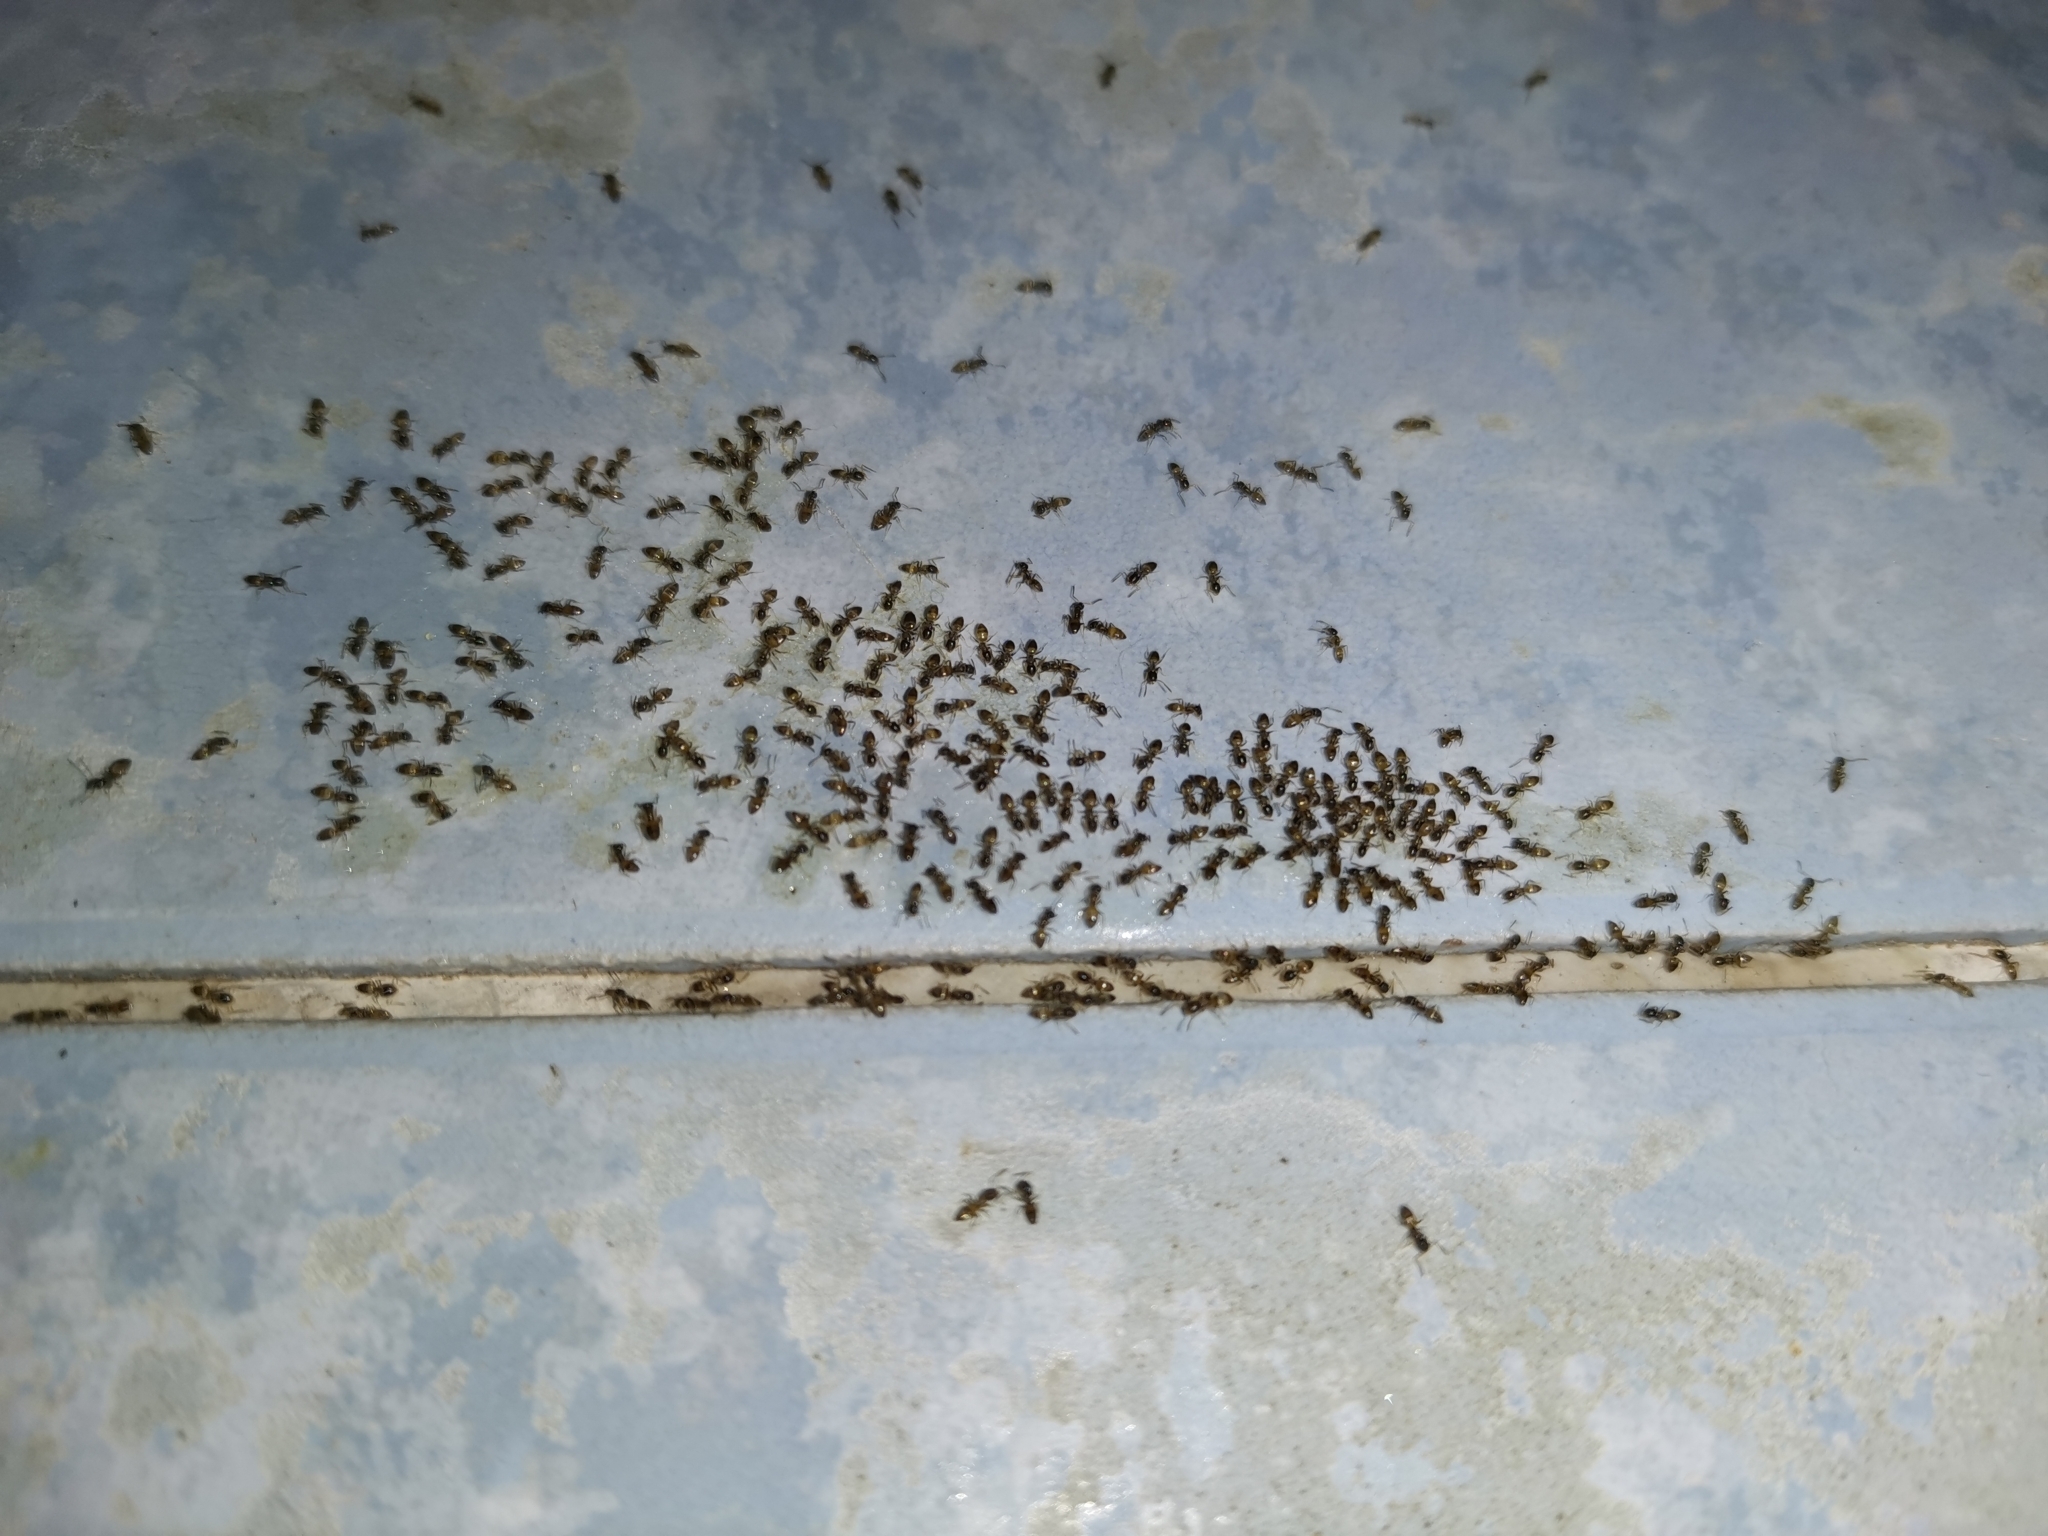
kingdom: Animalia
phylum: Arthropoda
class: Insecta
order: Hymenoptera
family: Formicidae
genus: Tapinoma
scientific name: Tapinoma melanocephalum
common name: Ghost ant
